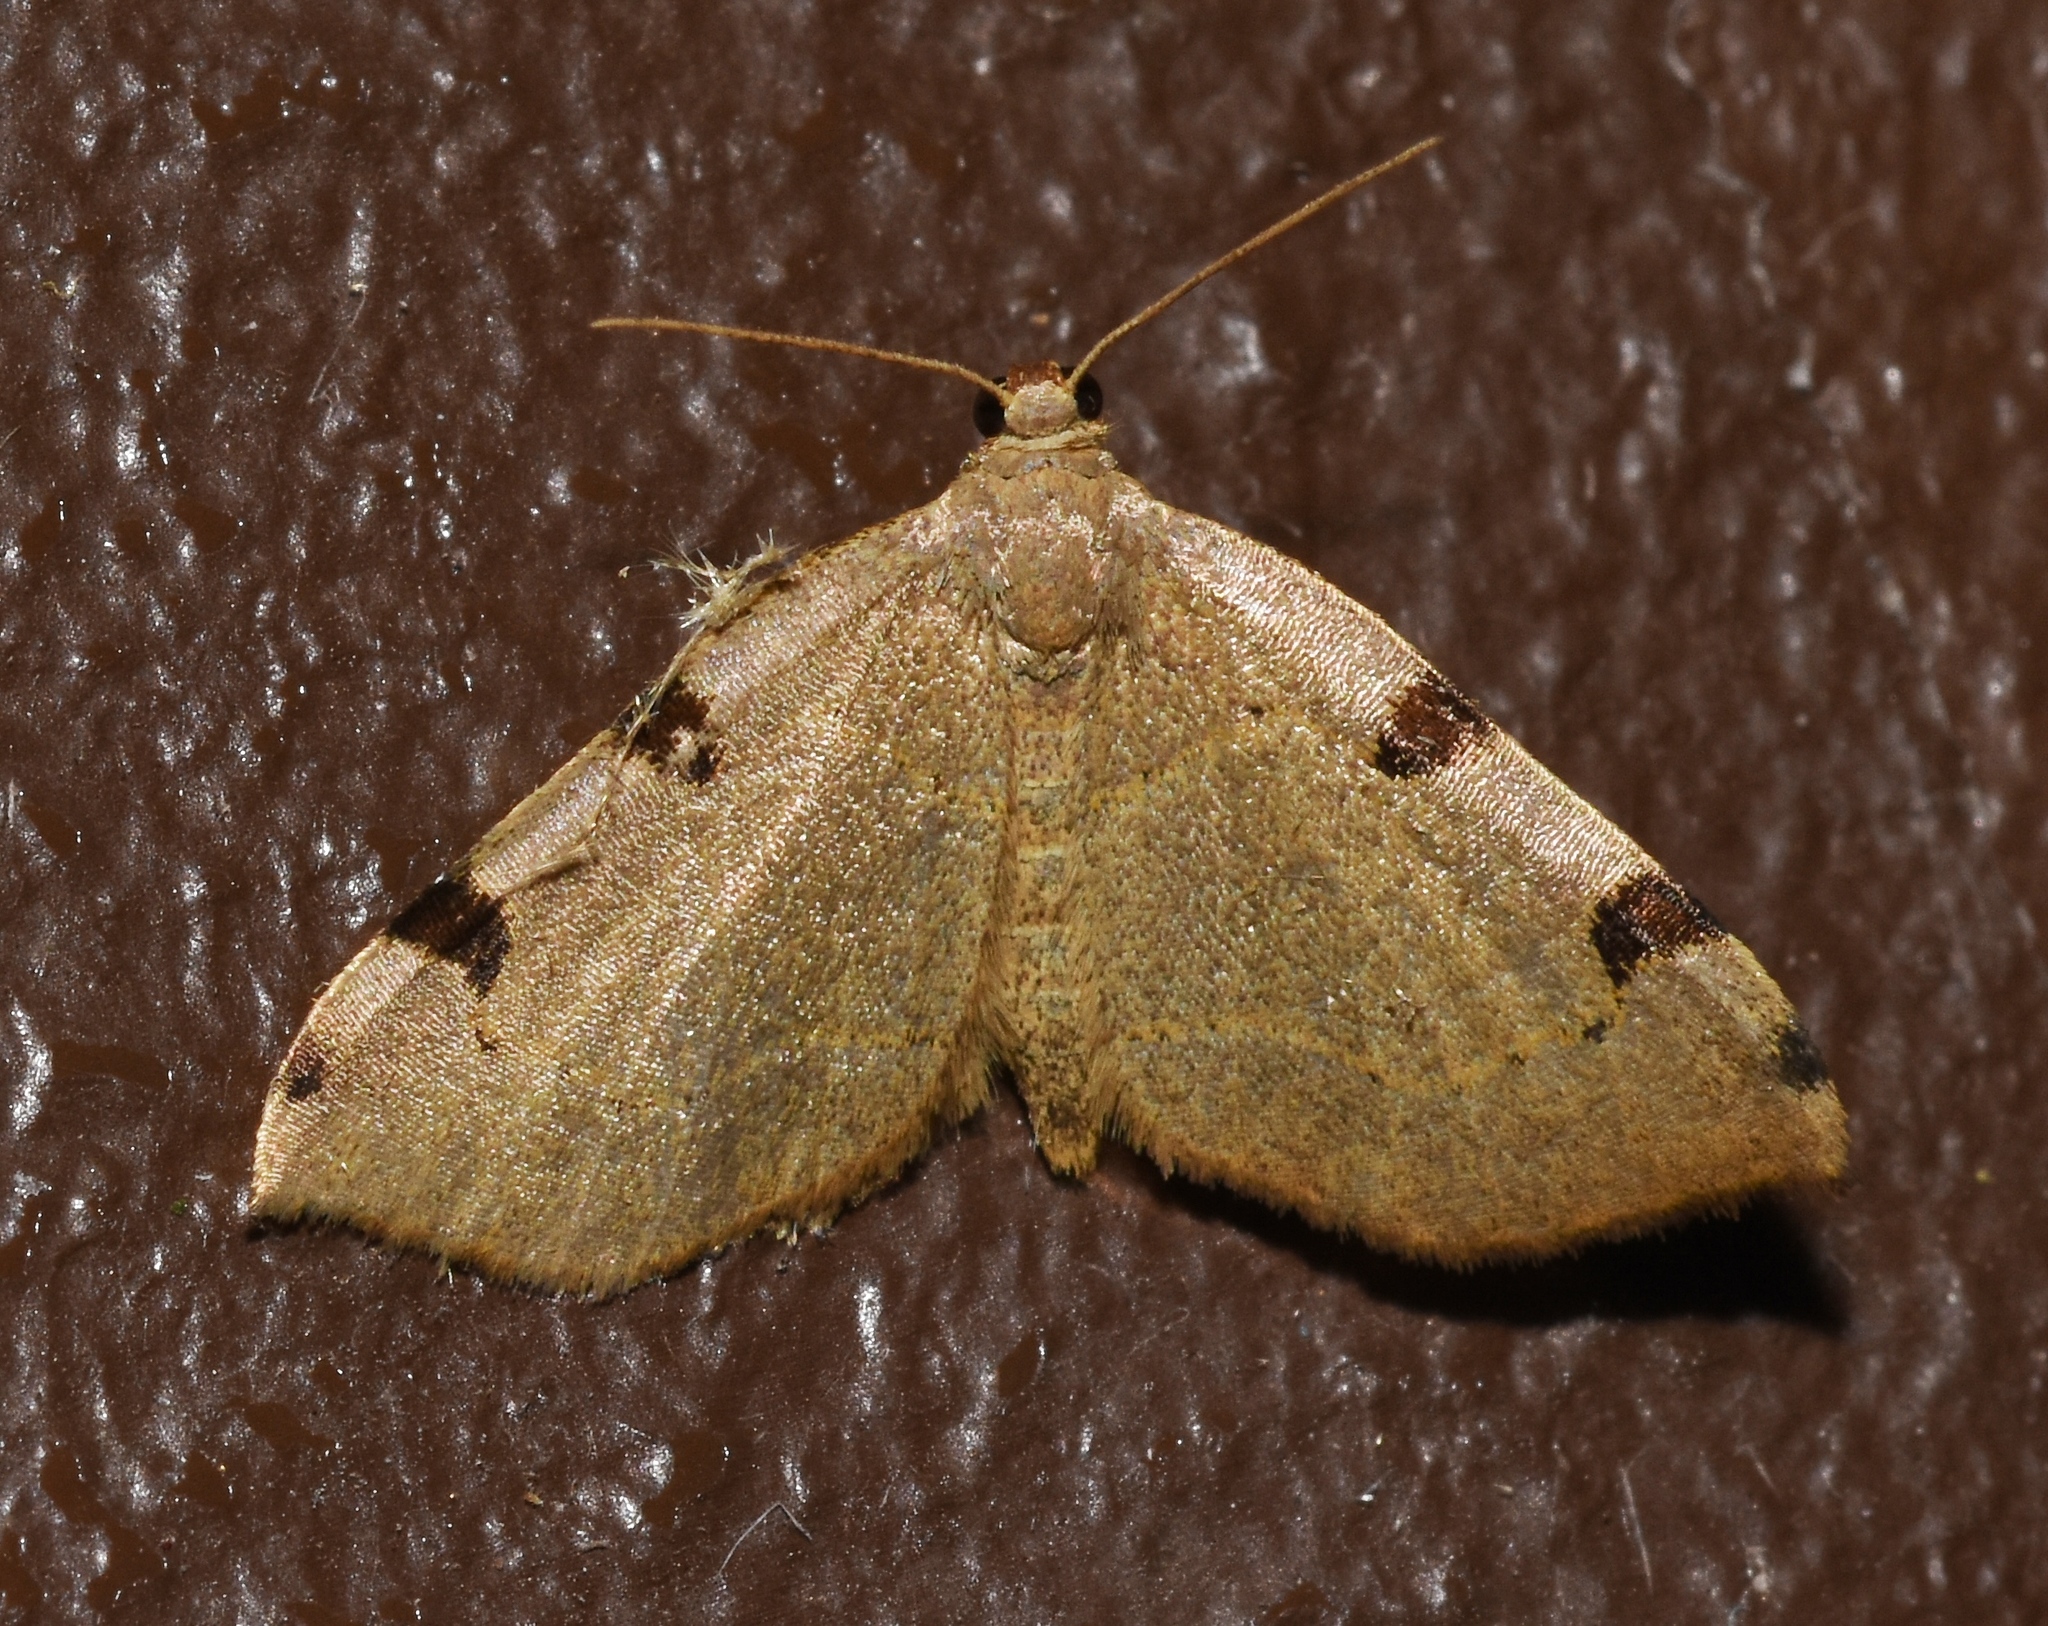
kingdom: Animalia
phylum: Arthropoda
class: Insecta
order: Lepidoptera
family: Geometridae
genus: Heterophleps
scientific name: Heterophleps triguttaria
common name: Three-spotted fillip
